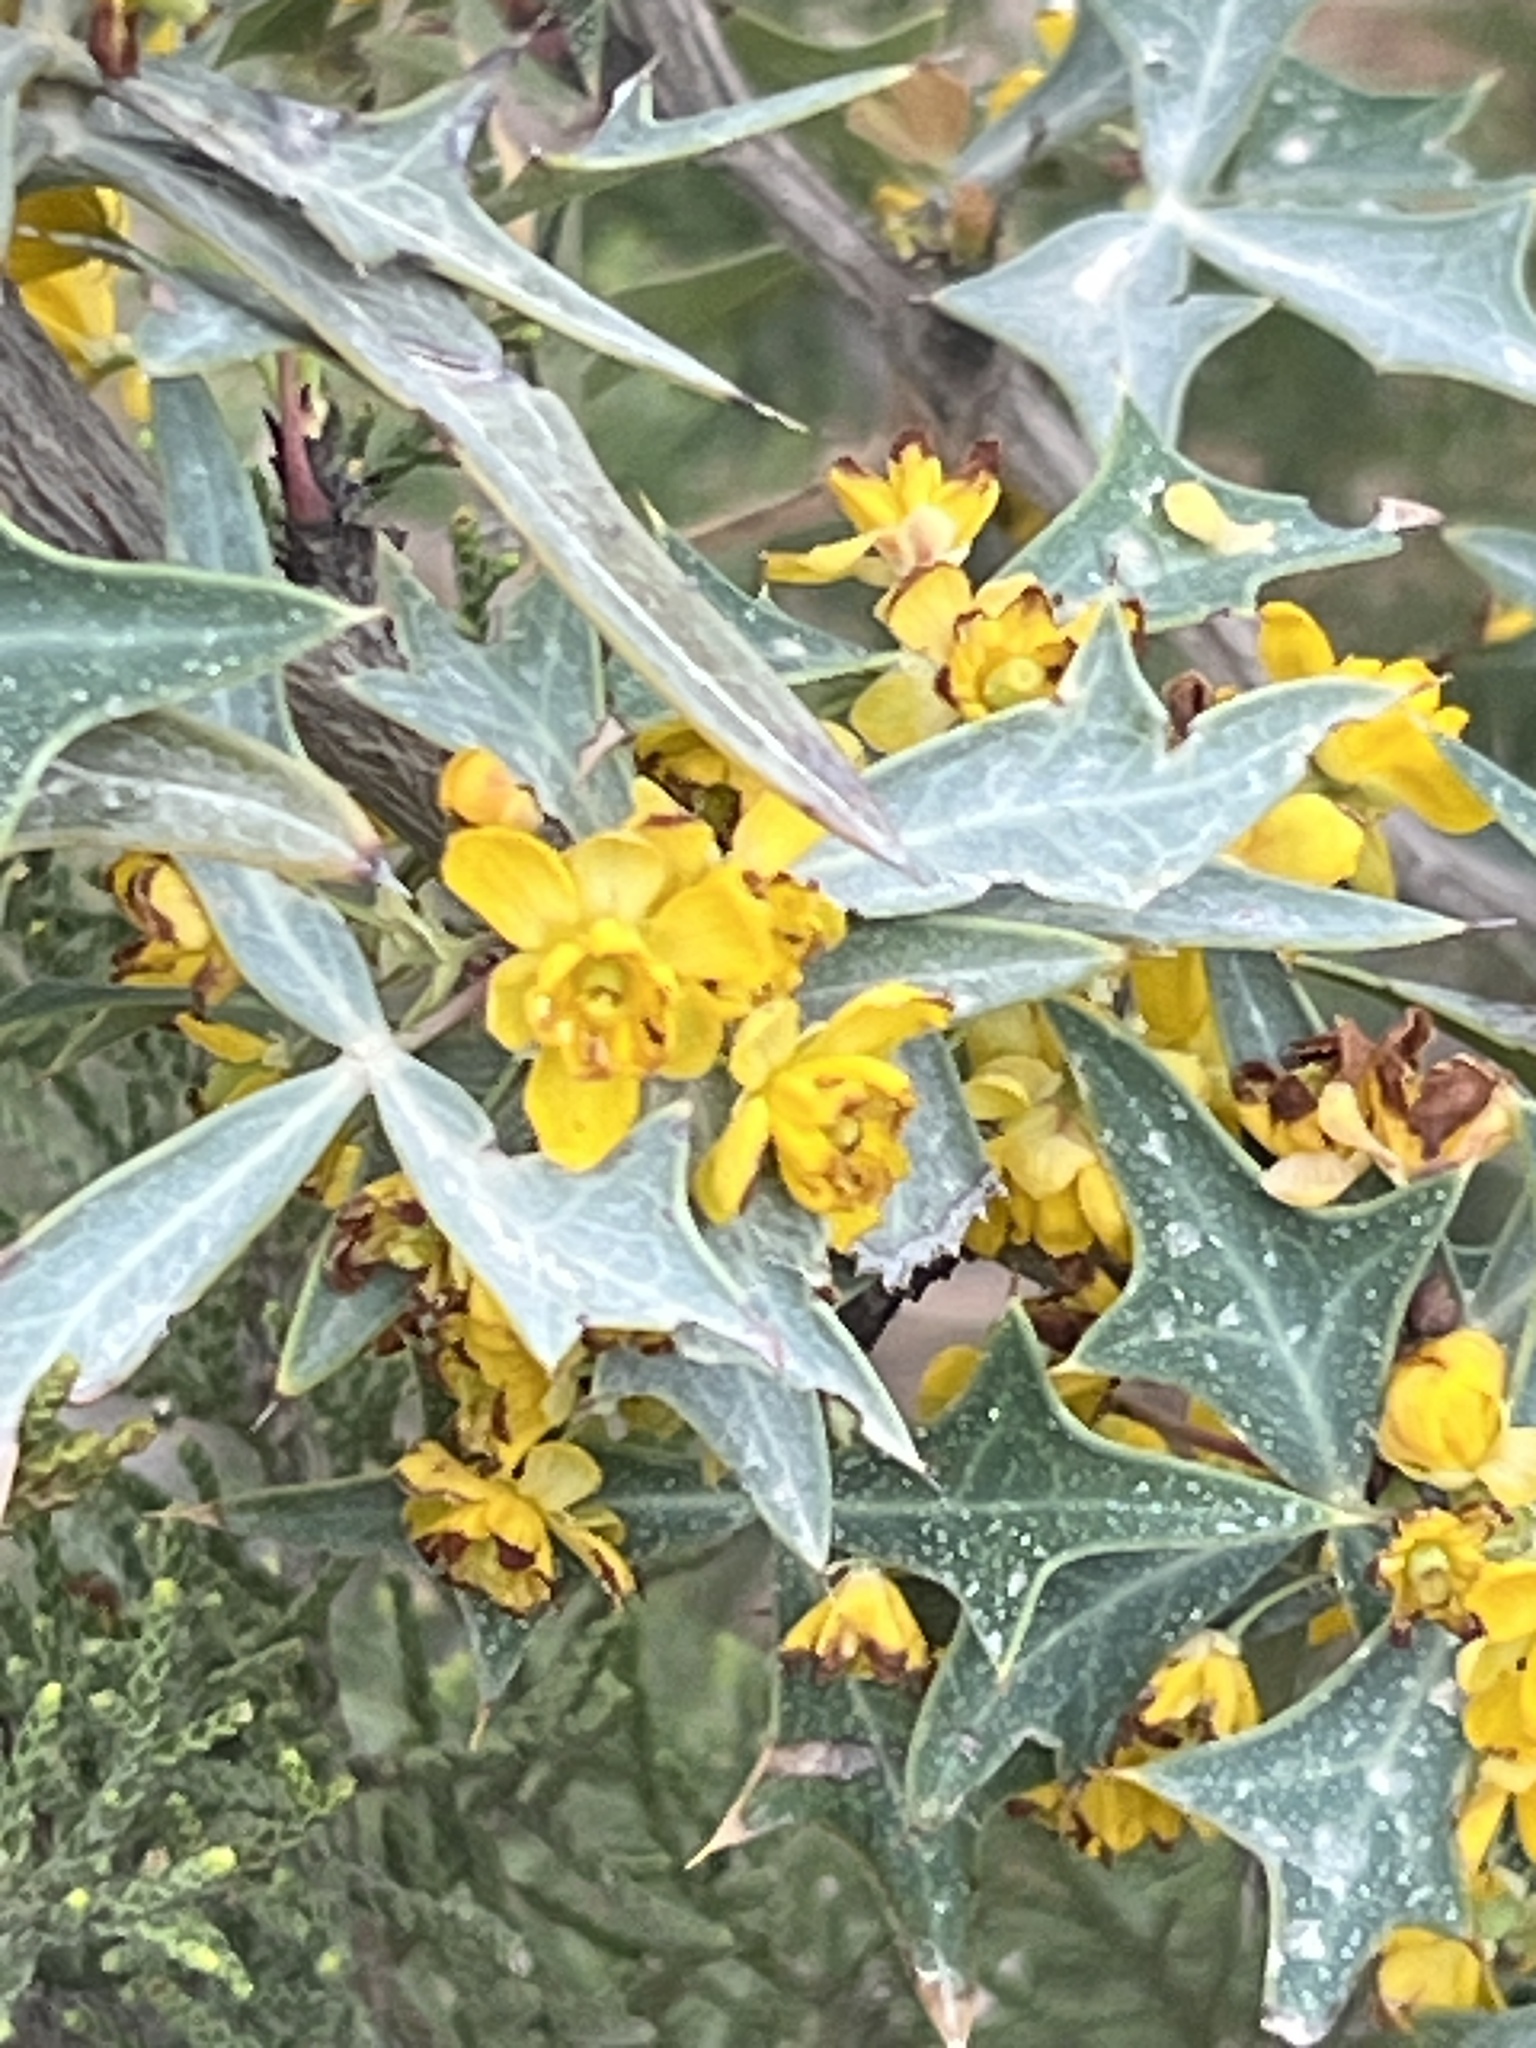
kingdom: Plantae
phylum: Tracheophyta
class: Magnoliopsida
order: Ranunculales
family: Berberidaceae
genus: Alloberberis
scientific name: Alloberberis trifoliolata
